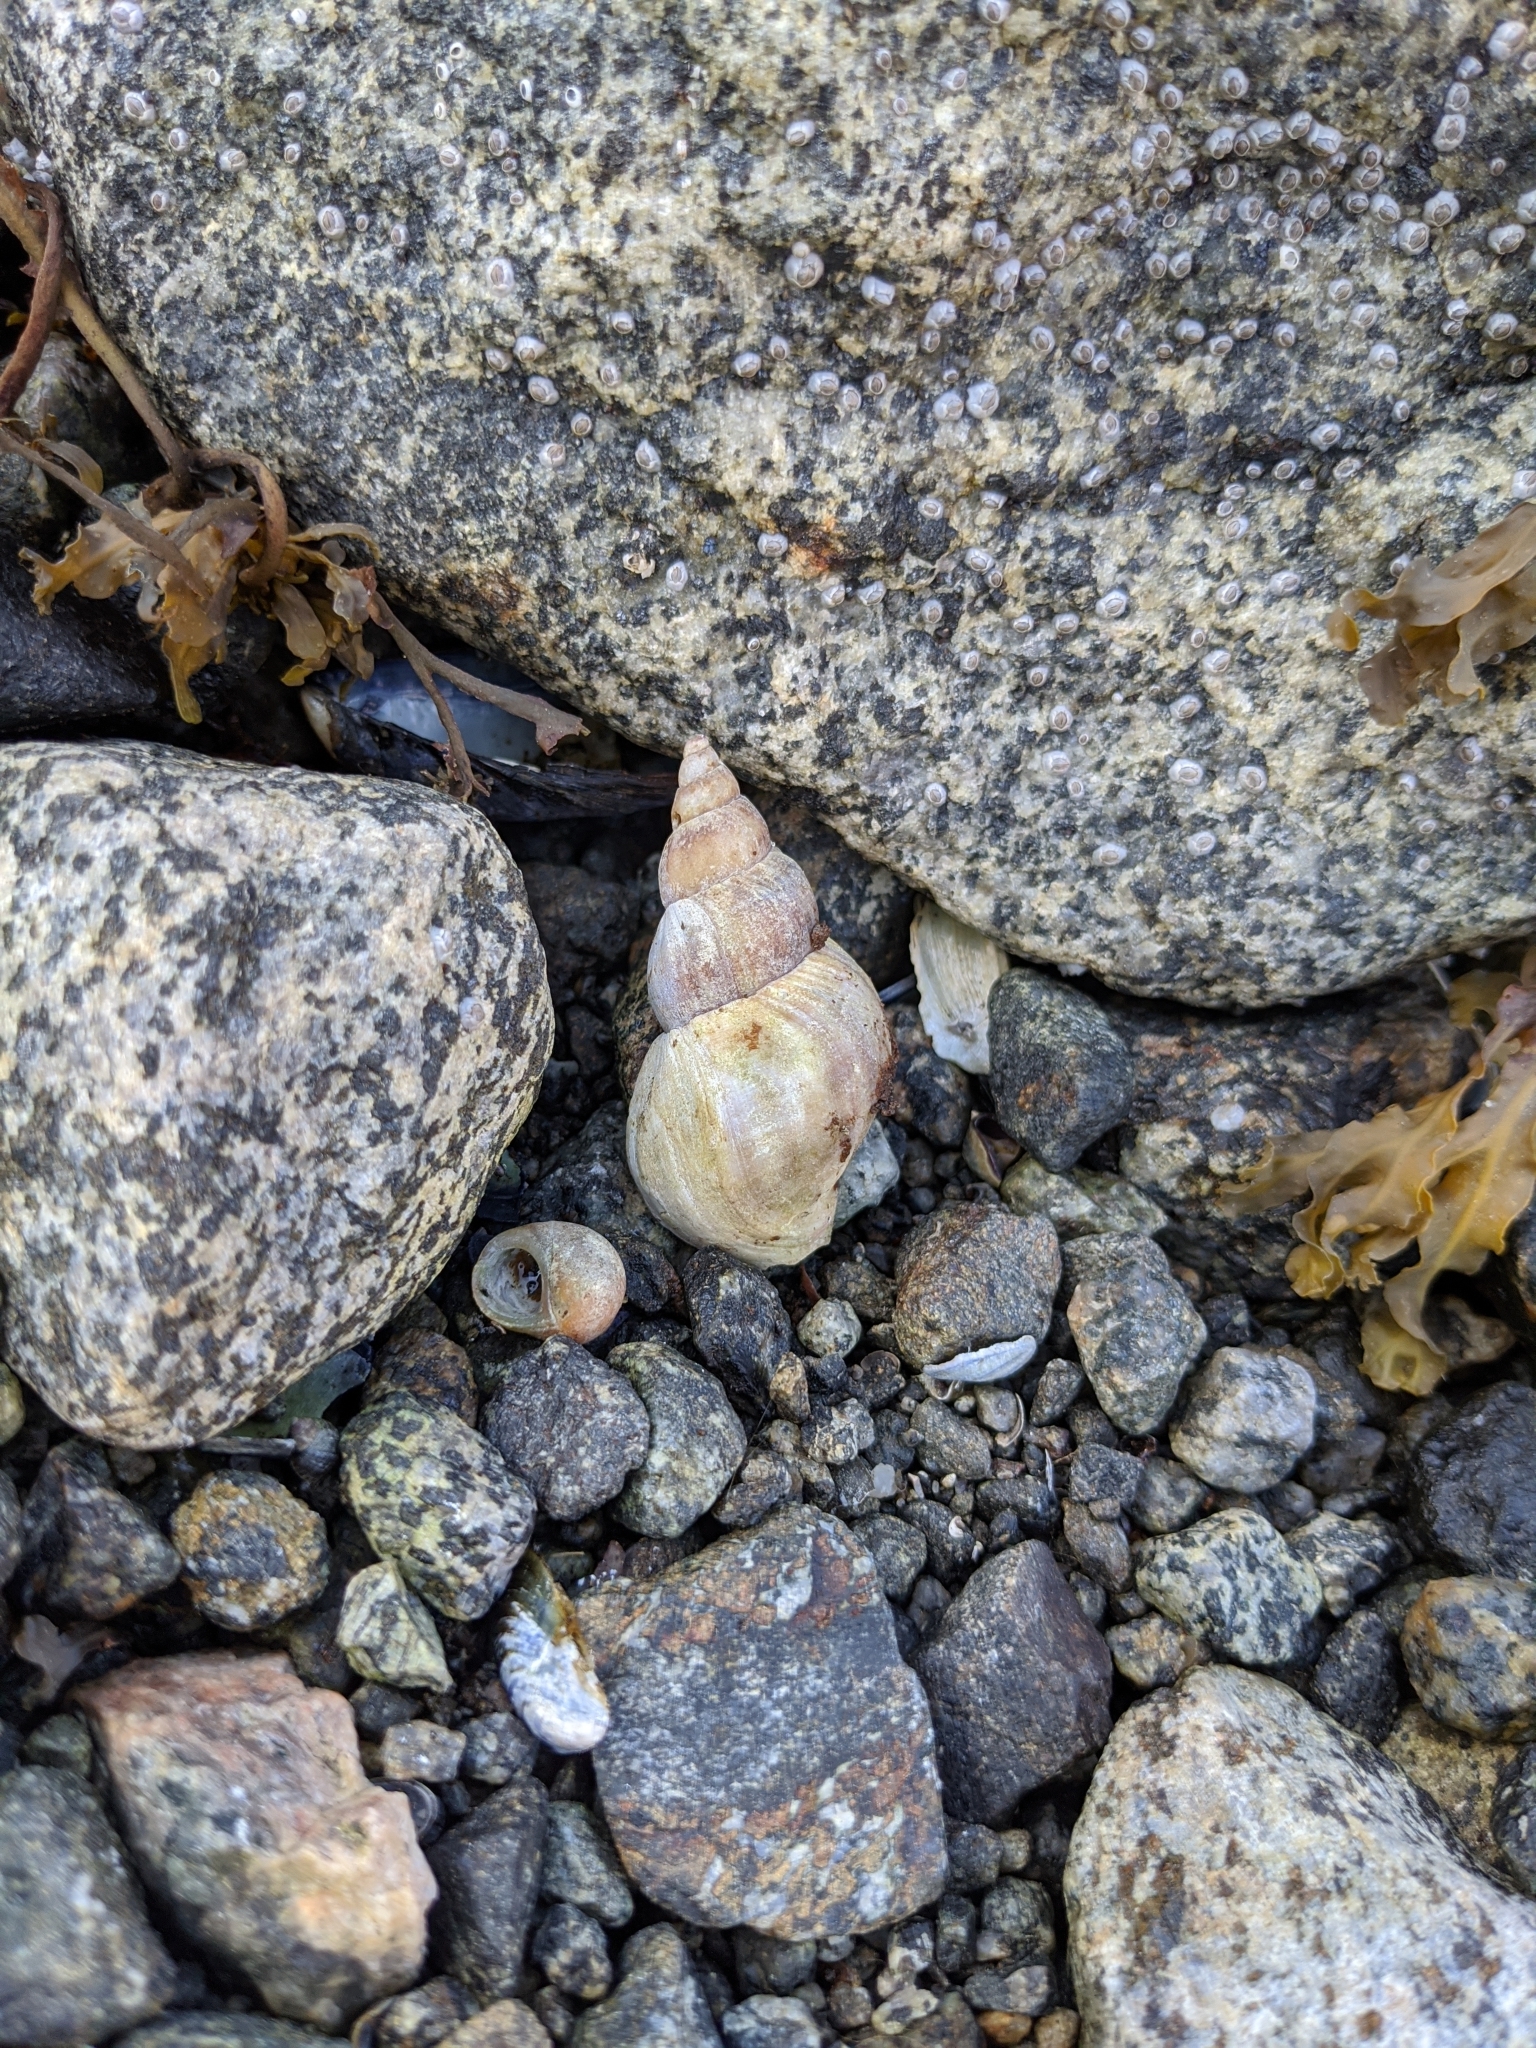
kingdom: Animalia
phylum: Mollusca
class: Gastropoda
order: Neogastropoda
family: Buccinidae
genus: Buccinum
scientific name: Buccinum undatum
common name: Common whelk
